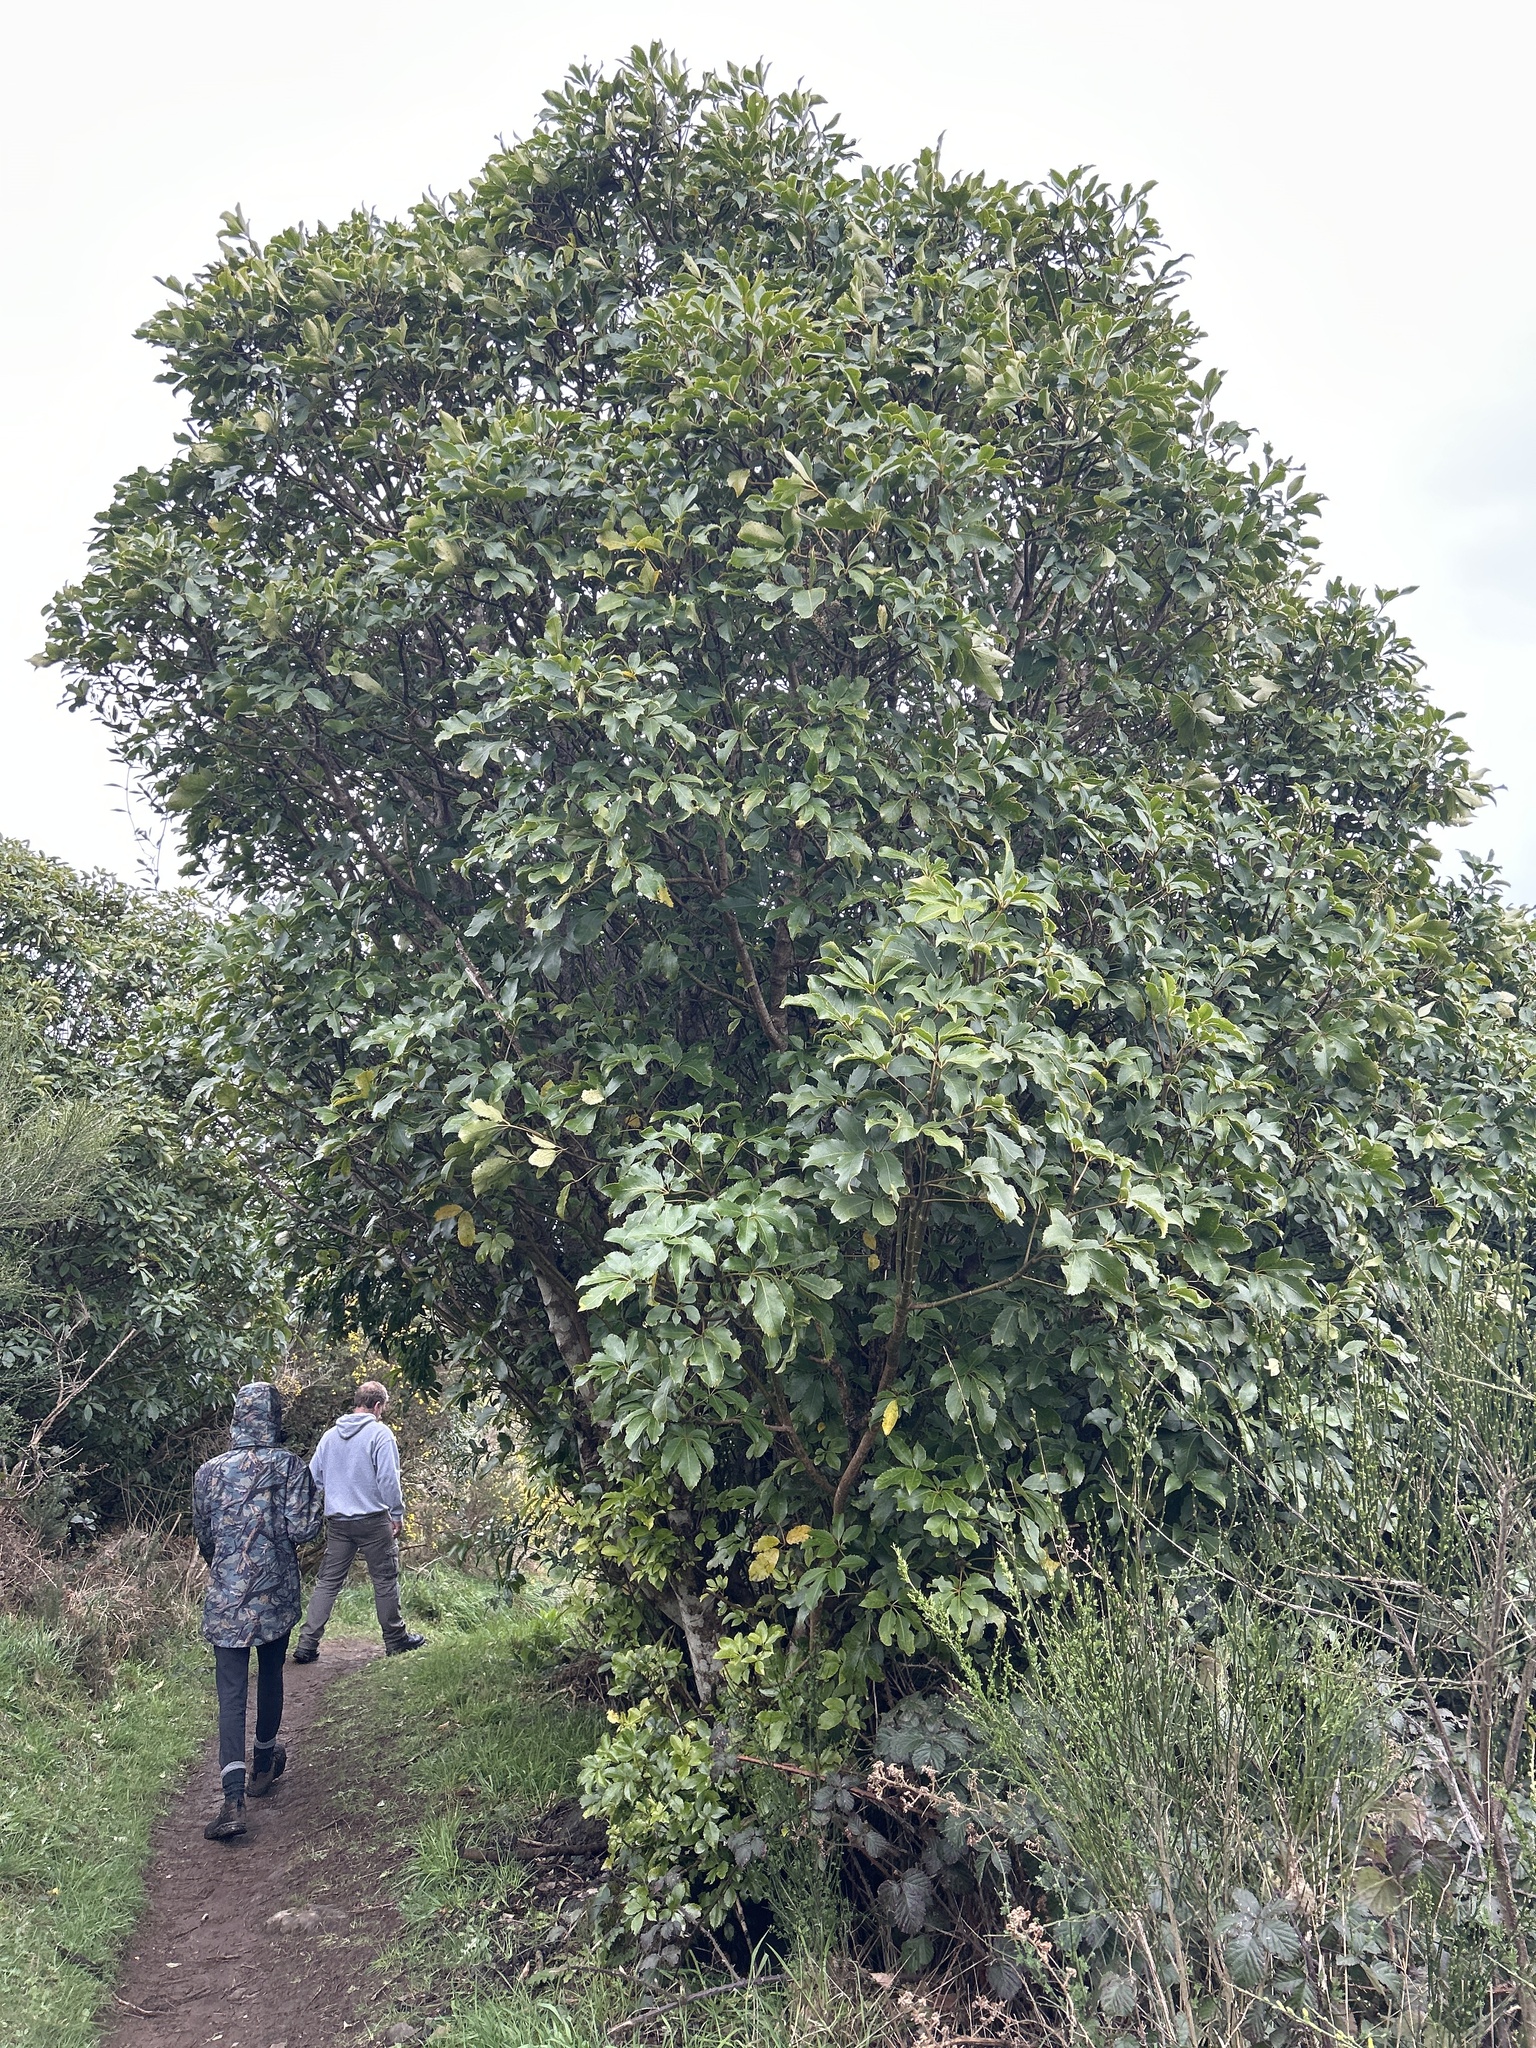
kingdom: Plantae
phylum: Tracheophyta
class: Magnoliopsida
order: Apiales
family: Araliaceae
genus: Neopanax
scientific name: Neopanax arboreus
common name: Five-fingers
